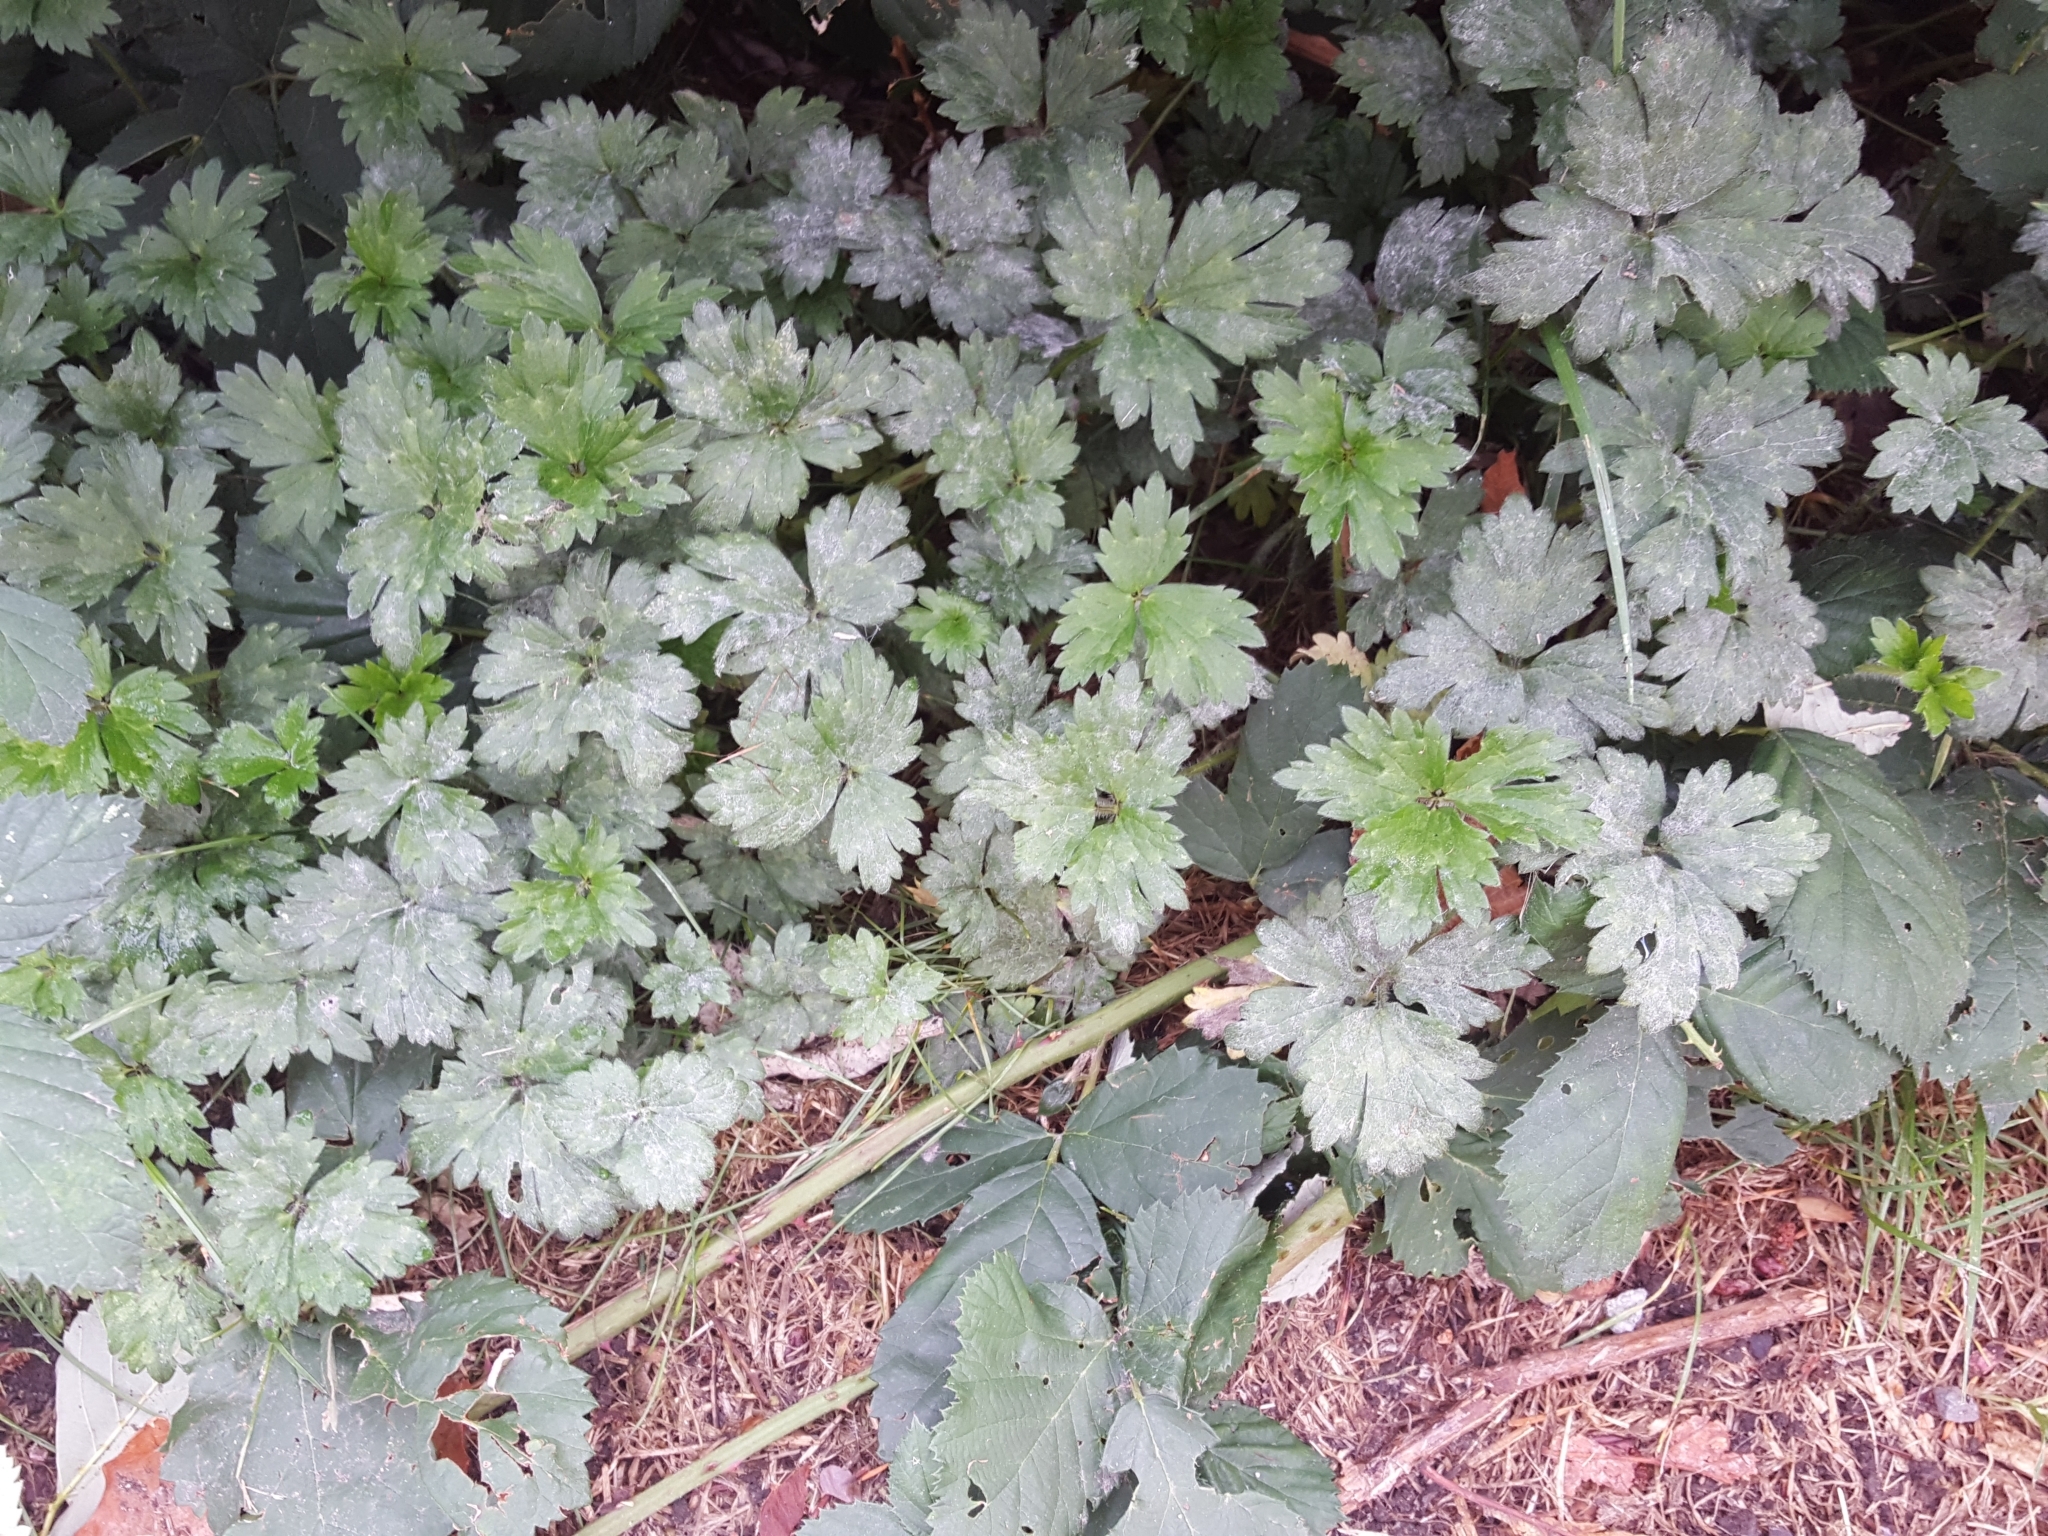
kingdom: Plantae
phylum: Tracheophyta
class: Magnoliopsida
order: Ranunculales
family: Ranunculaceae
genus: Ranunculus
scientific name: Ranunculus repens
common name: Creeping buttercup
